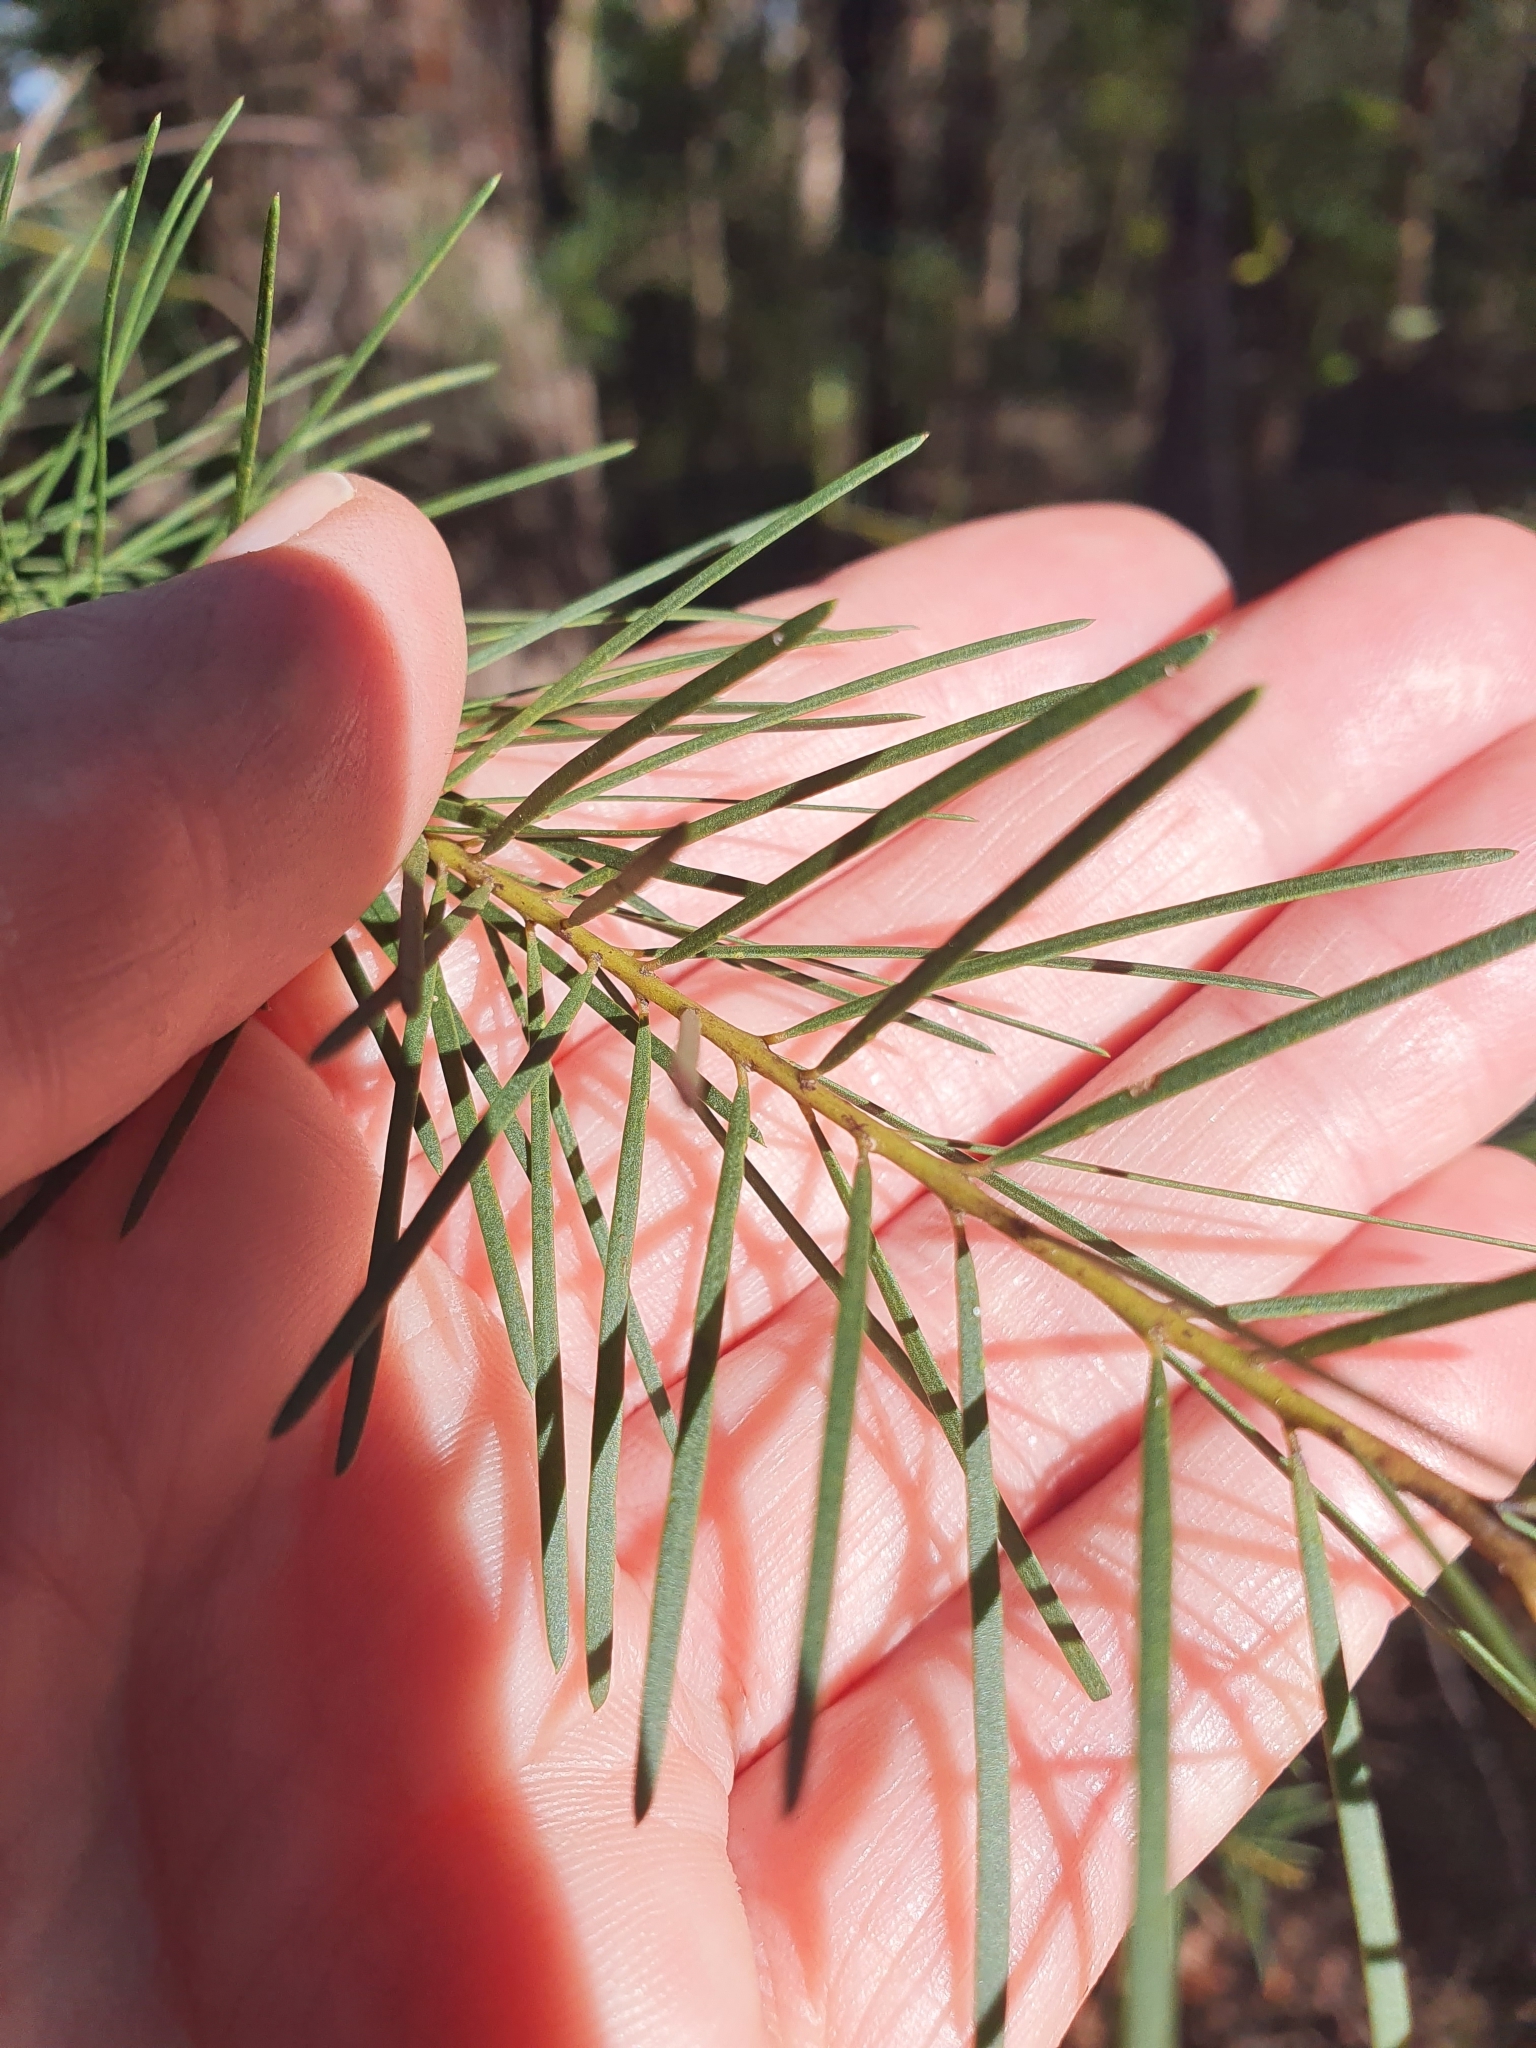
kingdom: Plantae
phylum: Tracheophyta
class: Magnoliopsida
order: Fabales
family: Fabaceae
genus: Acacia
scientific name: Acacia linifolia
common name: White wattle
